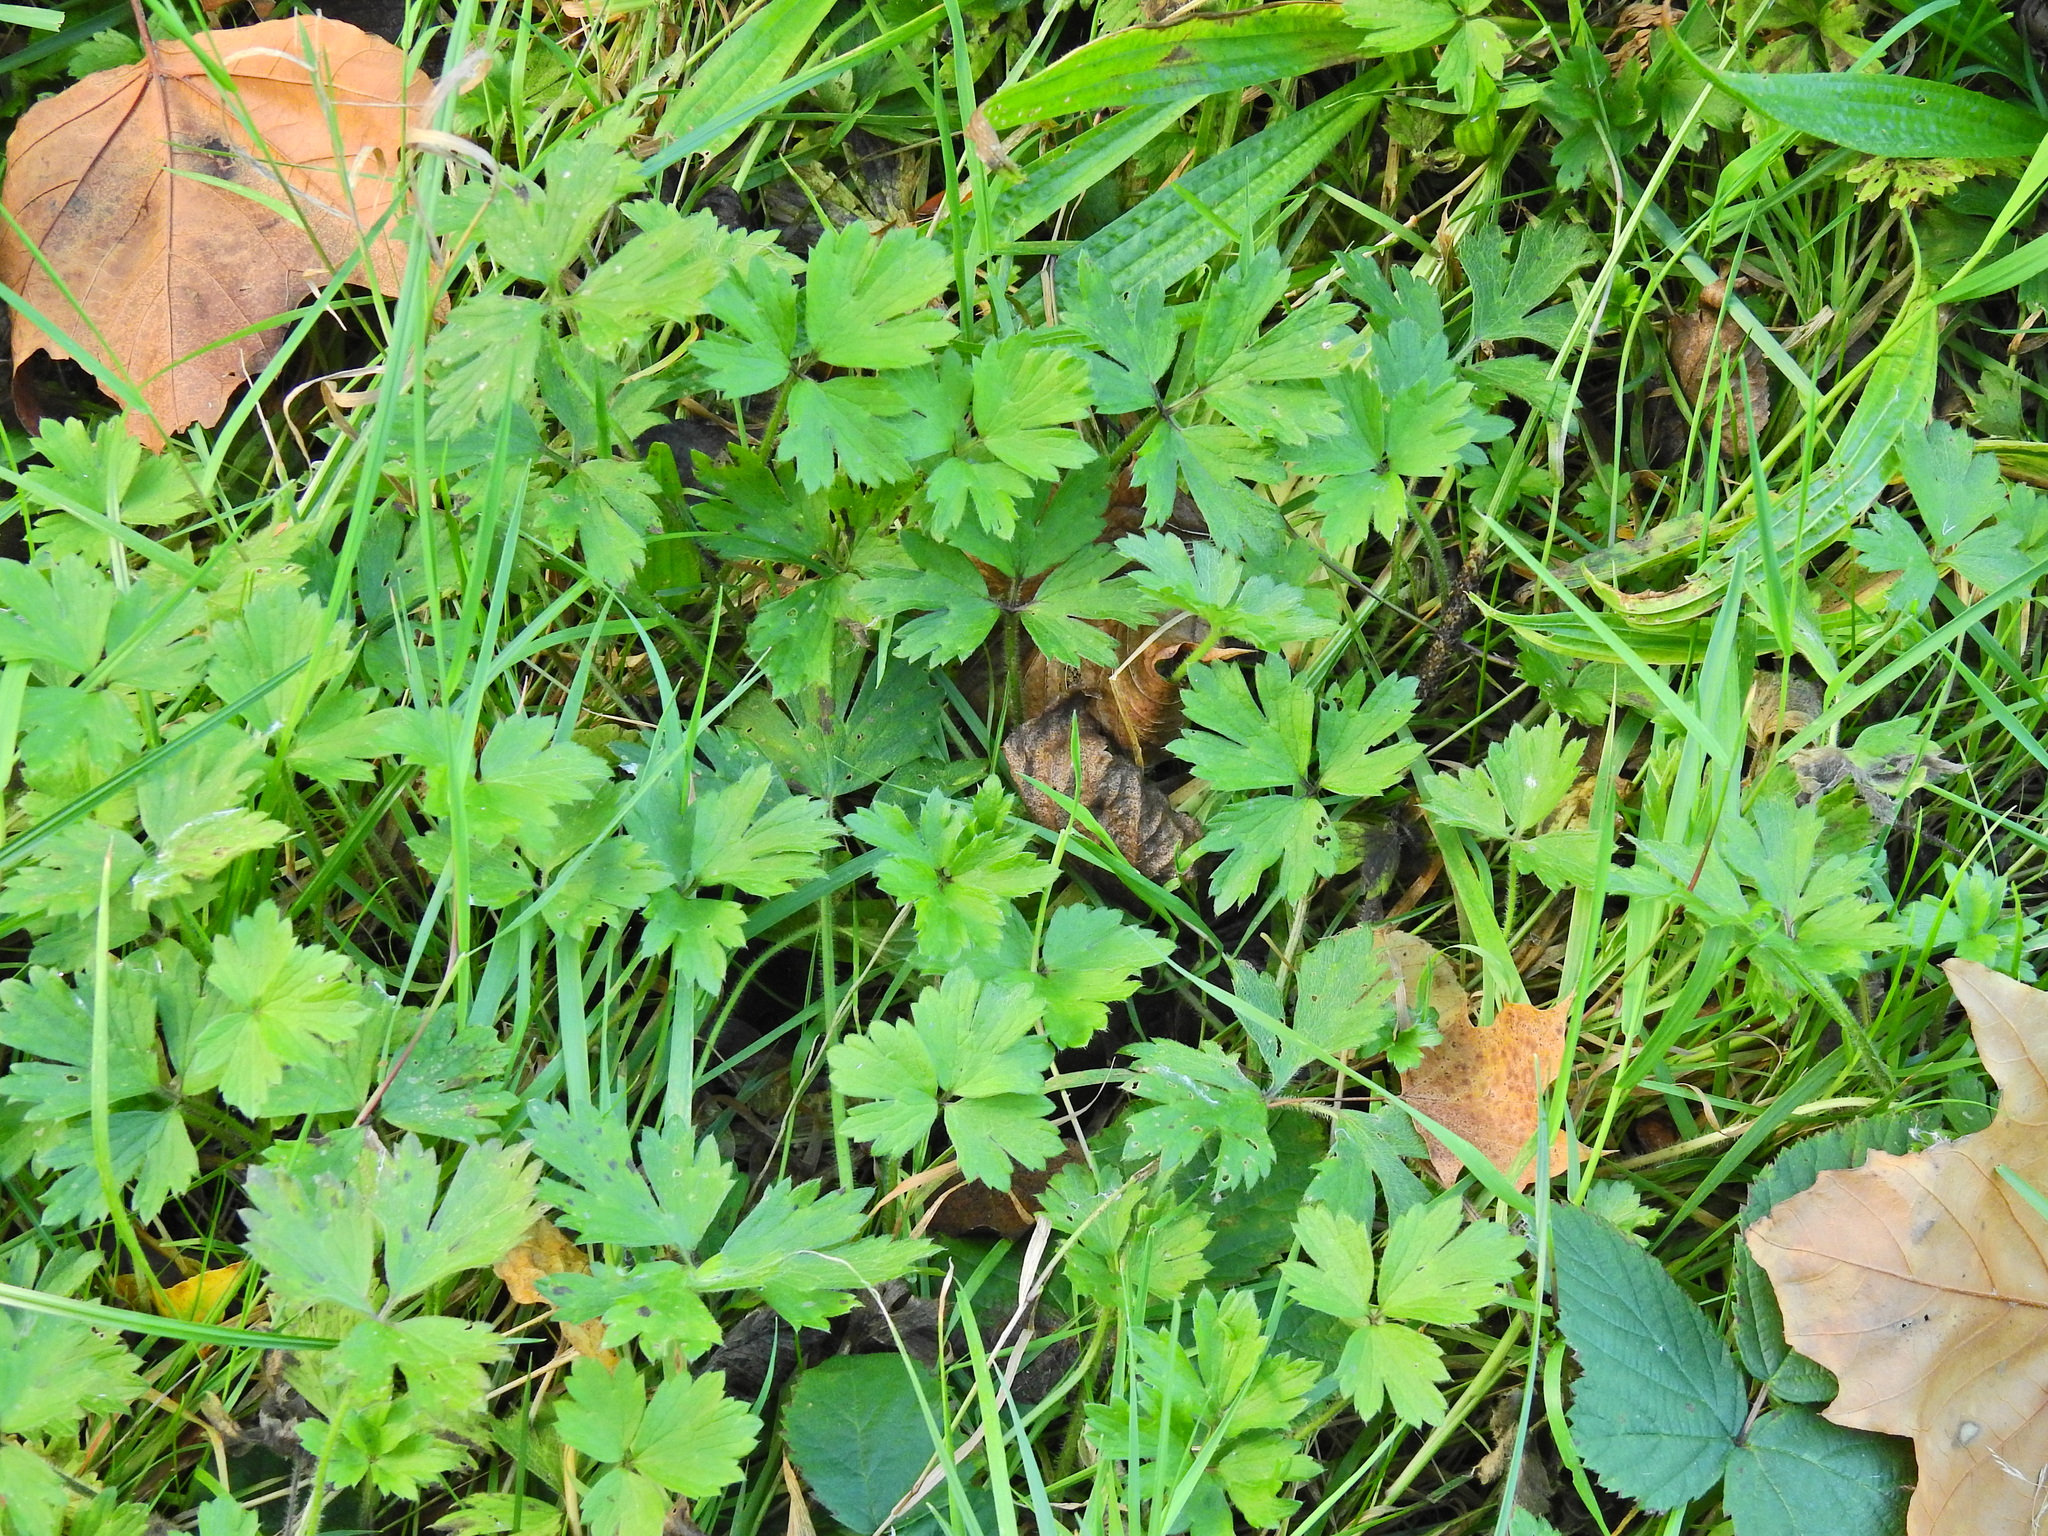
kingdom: Plantae
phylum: Tracheophyta
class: Magnoliopsida
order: Ranunculales
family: Ranunculaceae
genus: Ranunculus
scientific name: Ranunculus repens
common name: Creeping buttercup
